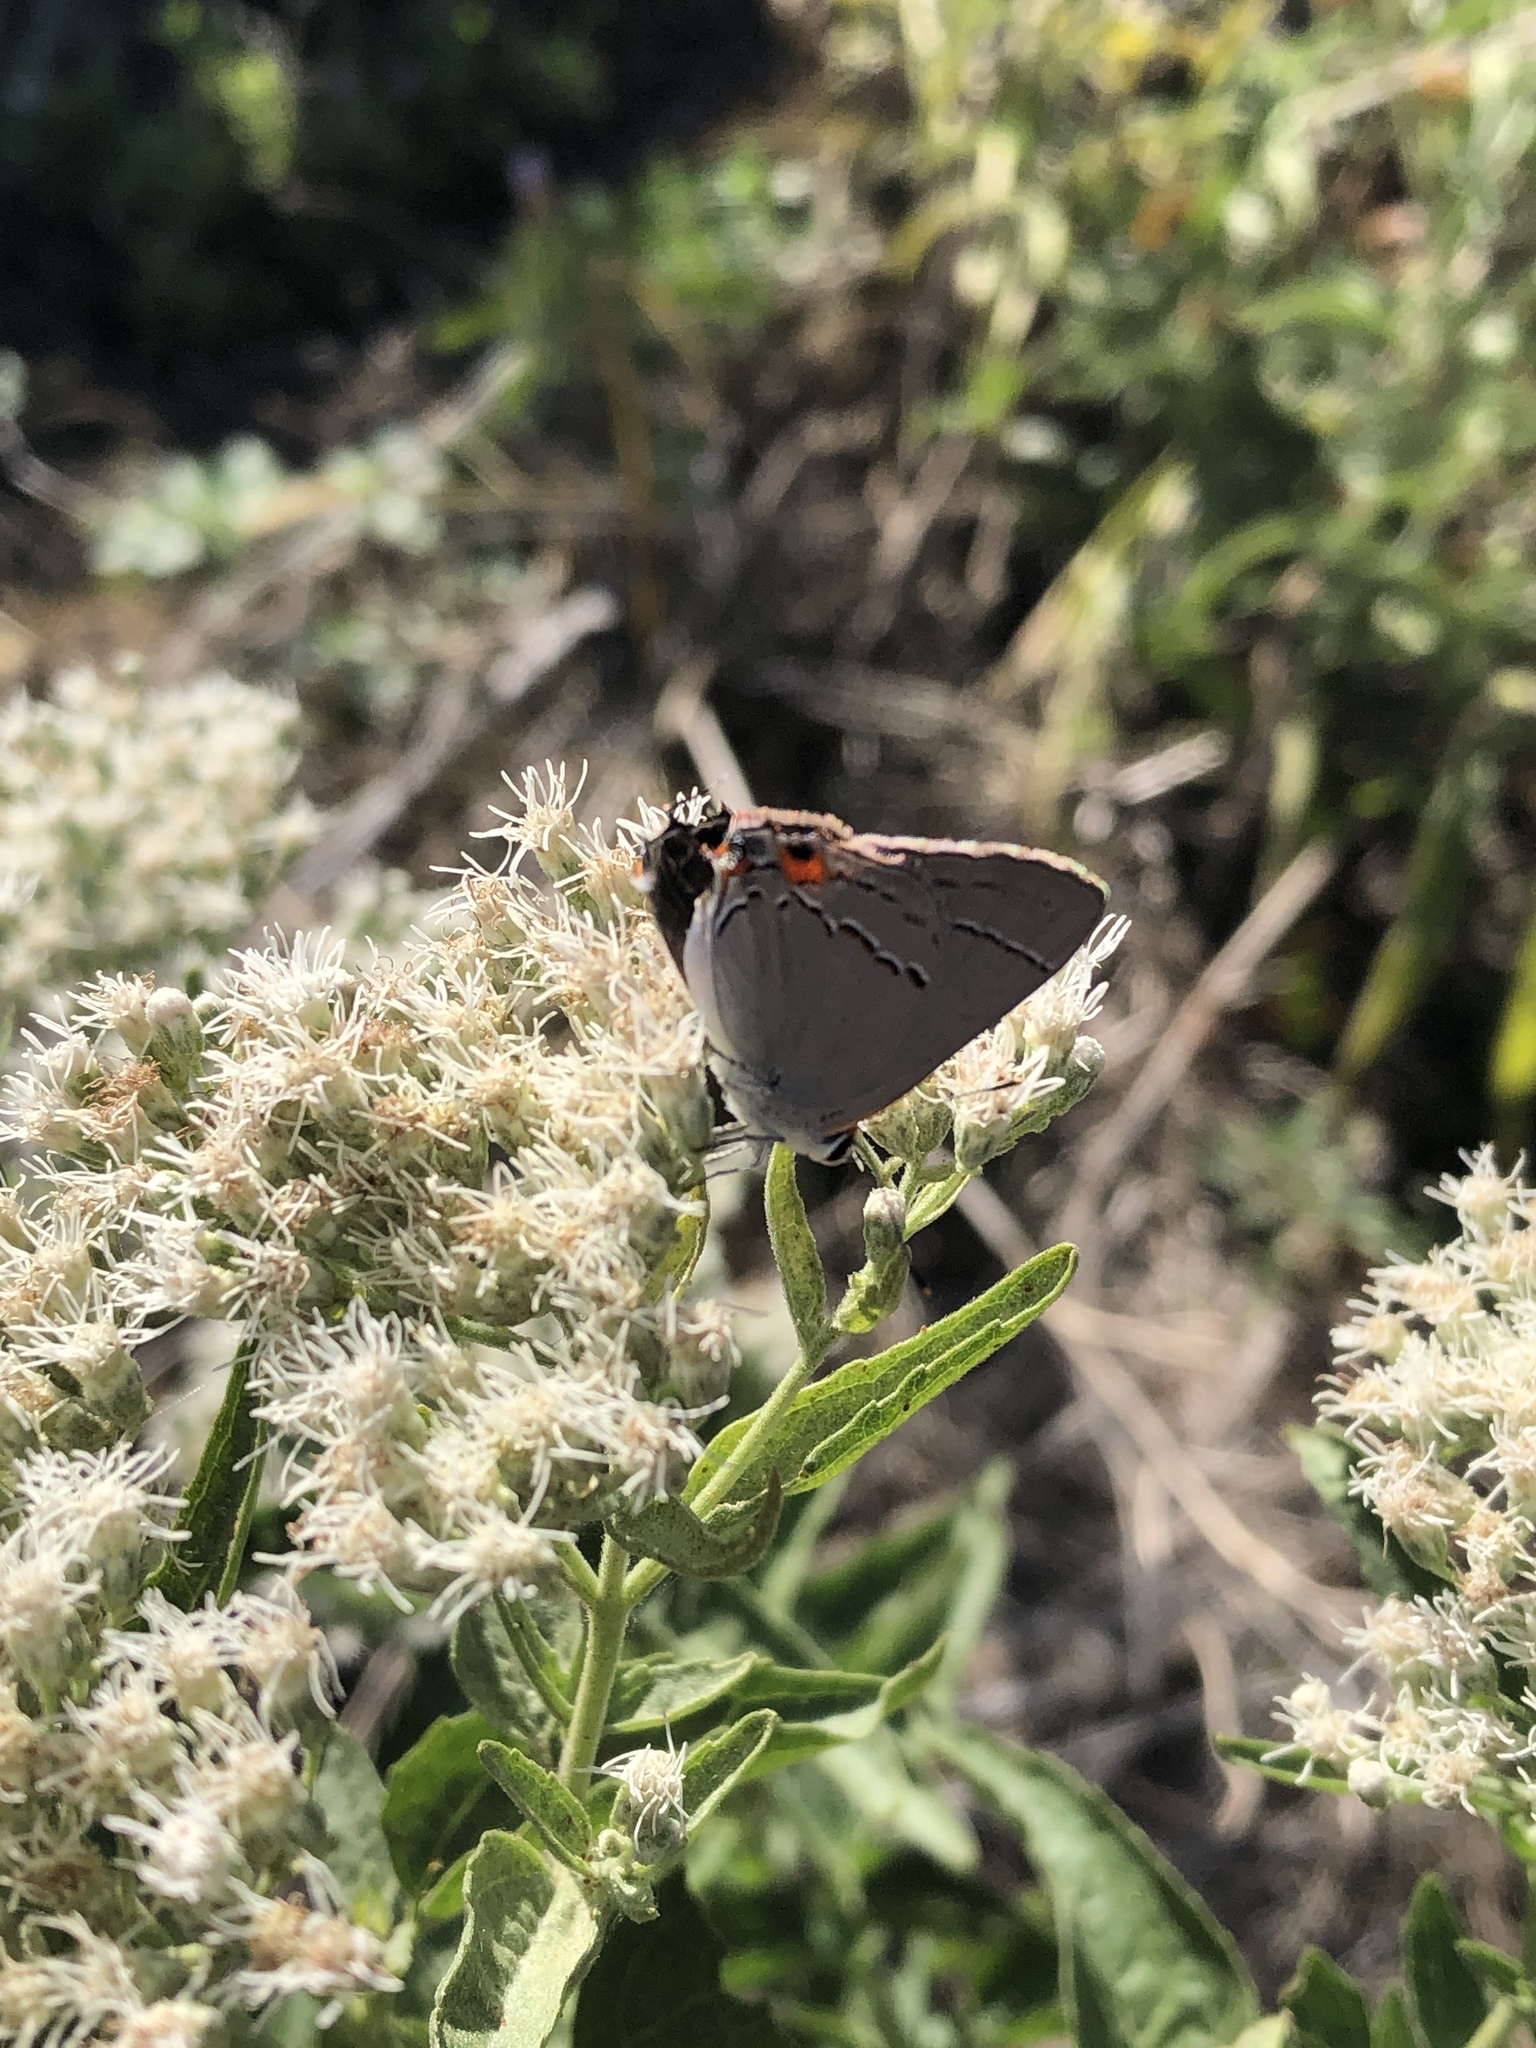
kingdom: Animalia
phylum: Arthropoda
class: Insecta
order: Lepidoptera
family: Lycaenidae
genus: Strymon
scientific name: Strymon melinus
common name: Gray hairstreak
